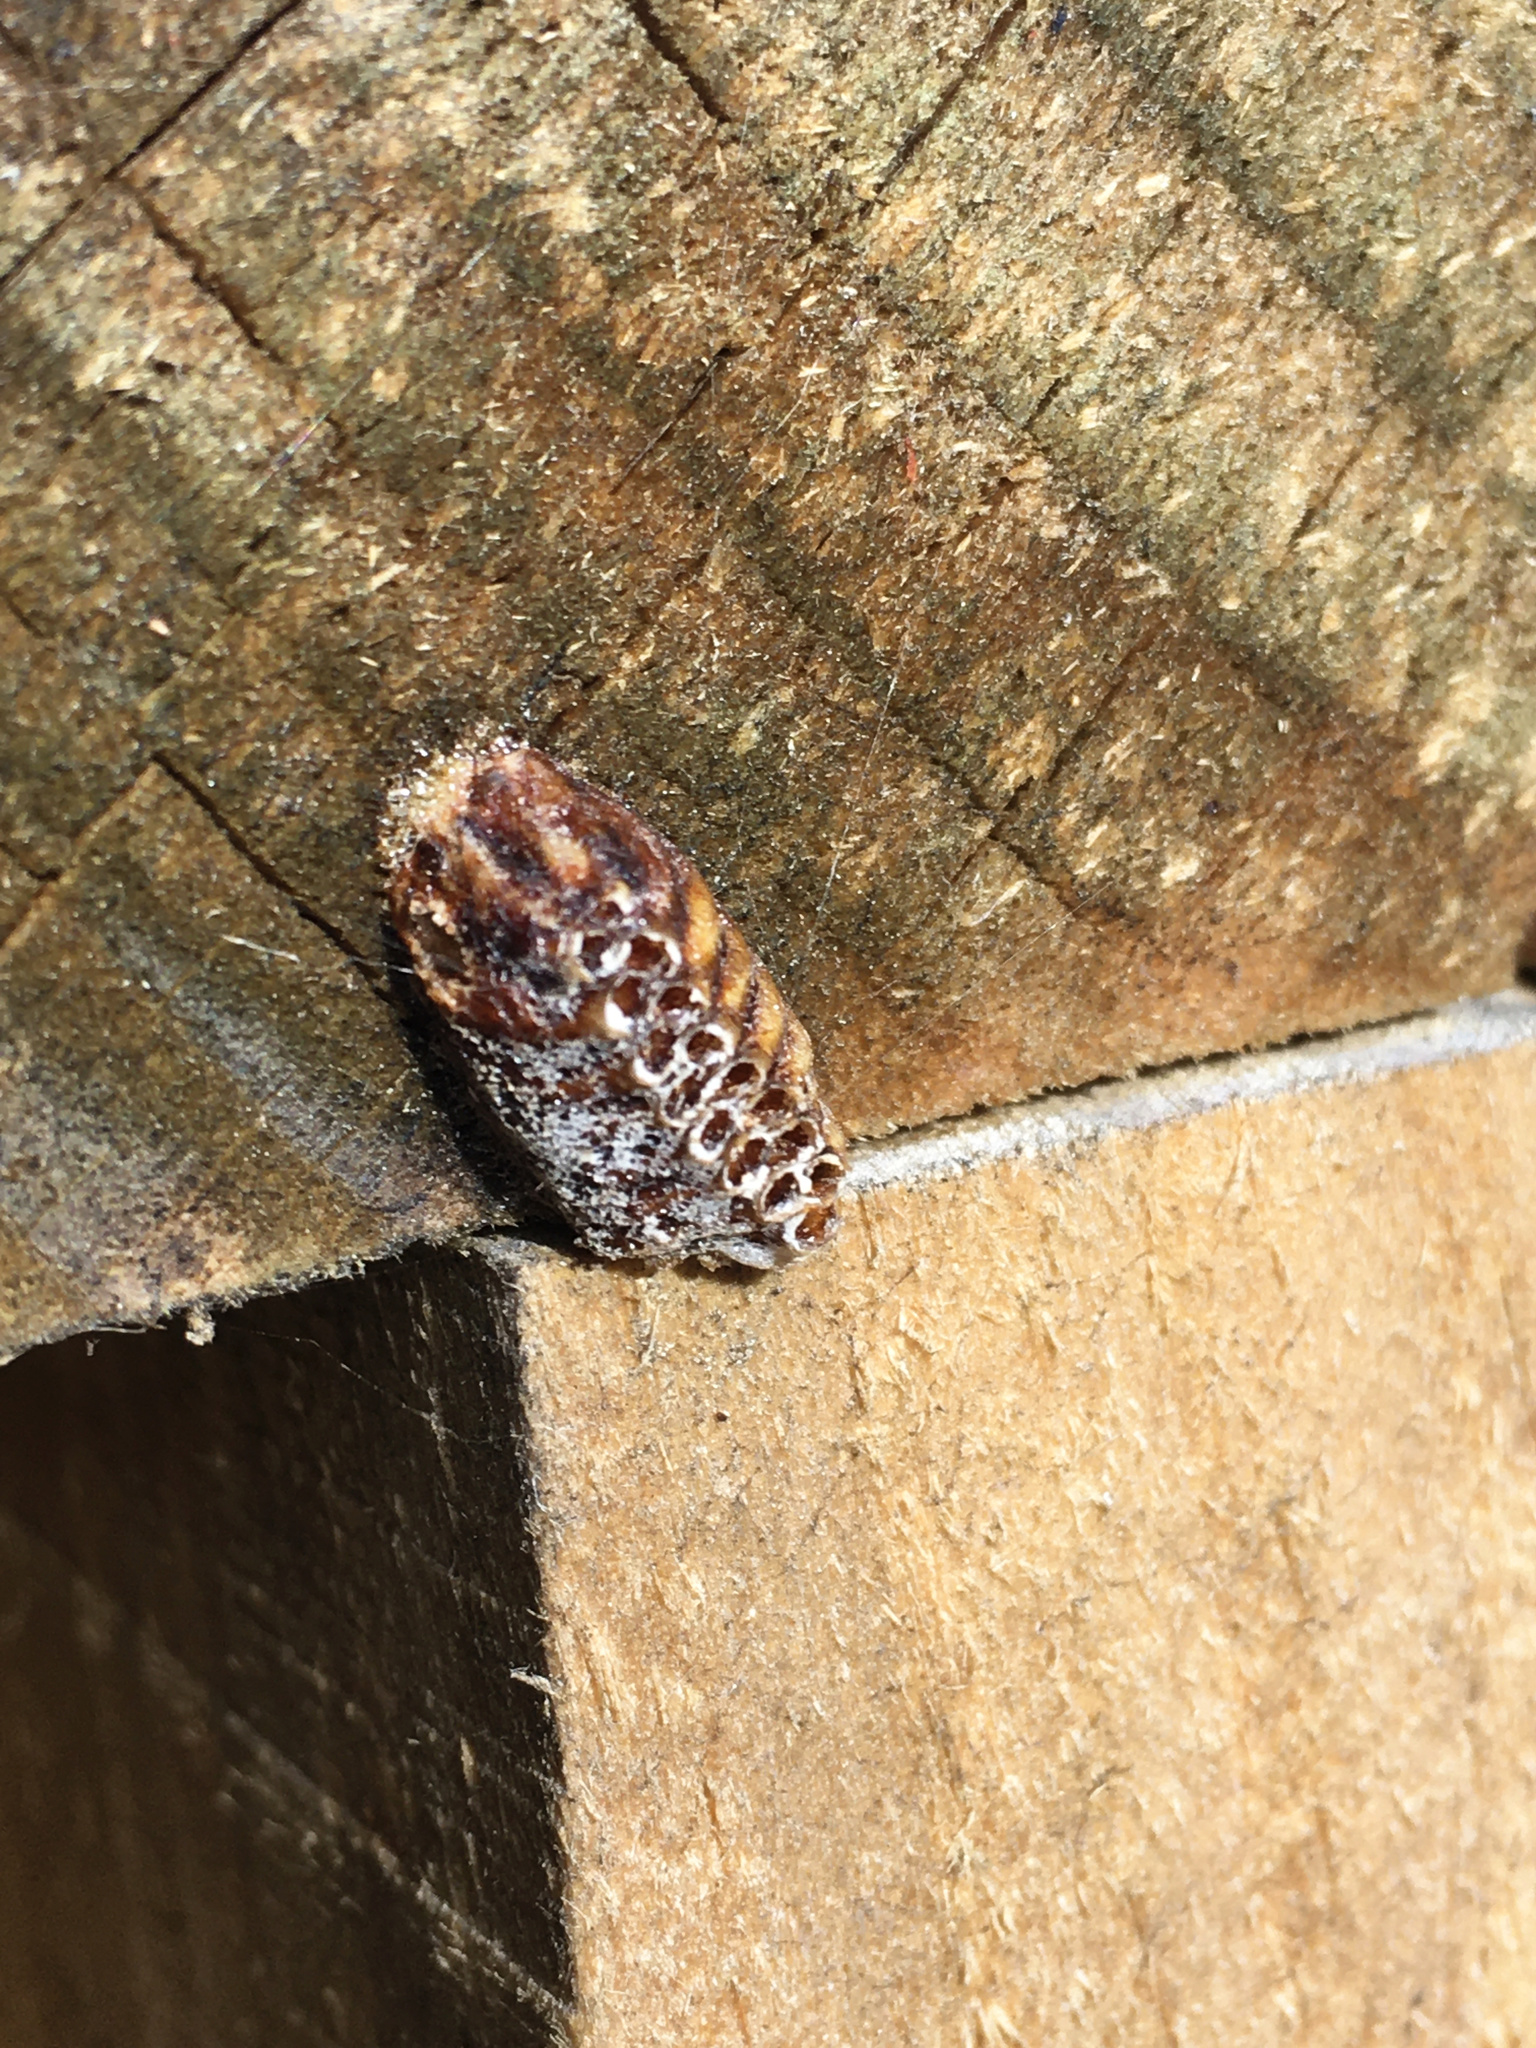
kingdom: Animalia
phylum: Arthropoda
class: Insecta
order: Mantodea
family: Mantidae
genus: Orthodera
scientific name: Orthodera novaezealandiae
